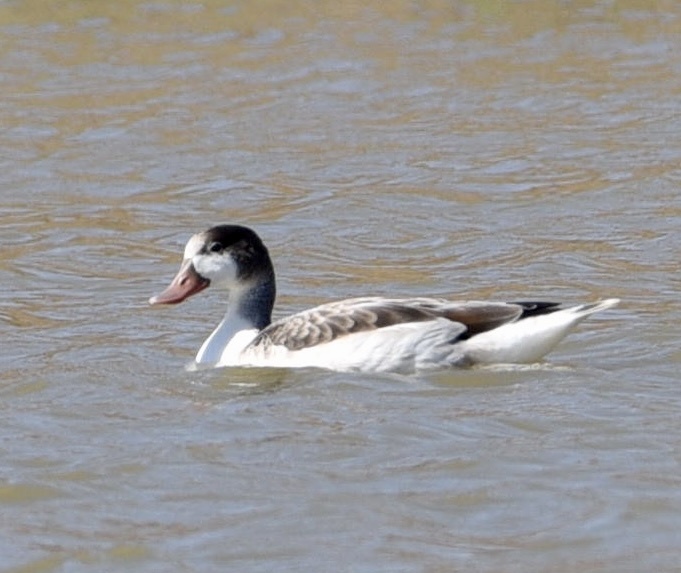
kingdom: Animalia
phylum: Chordata
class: Aves
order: Anseriformes
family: Anatidae
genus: Tadorna
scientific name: Tadorna tadorna
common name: Common shelduck
